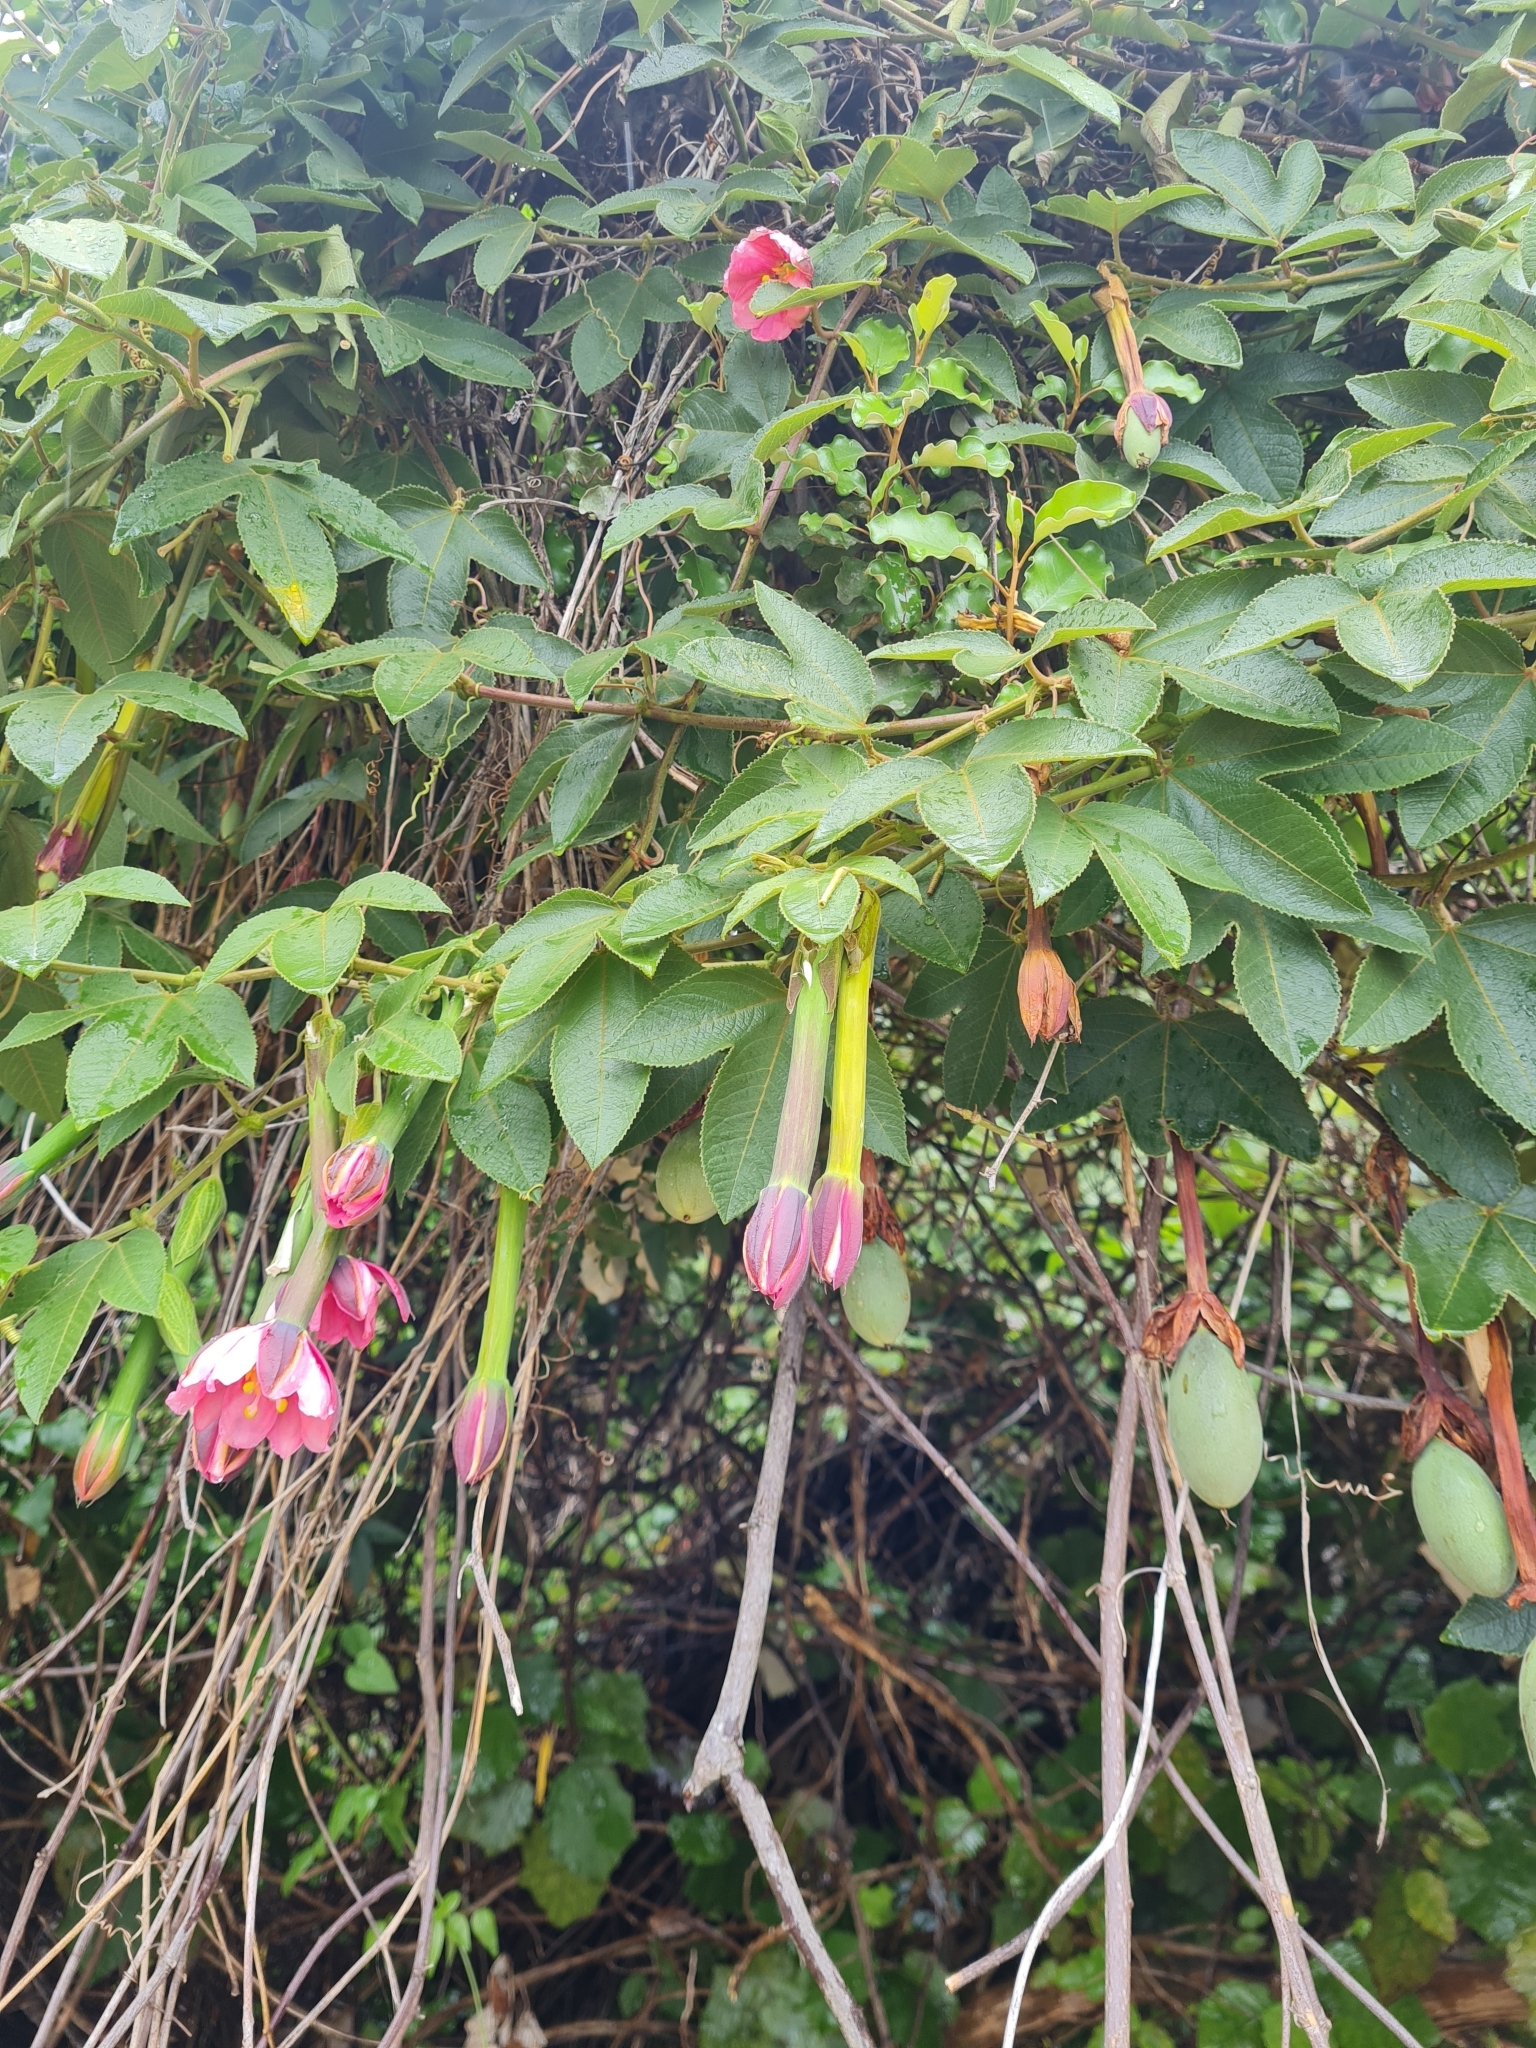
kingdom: Plantae
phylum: Tracheophyta
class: Magnoliopsida
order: Malpighiales
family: Passifloraceae
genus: Passiflora
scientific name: Passiflora tripartita
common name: Banana poka
